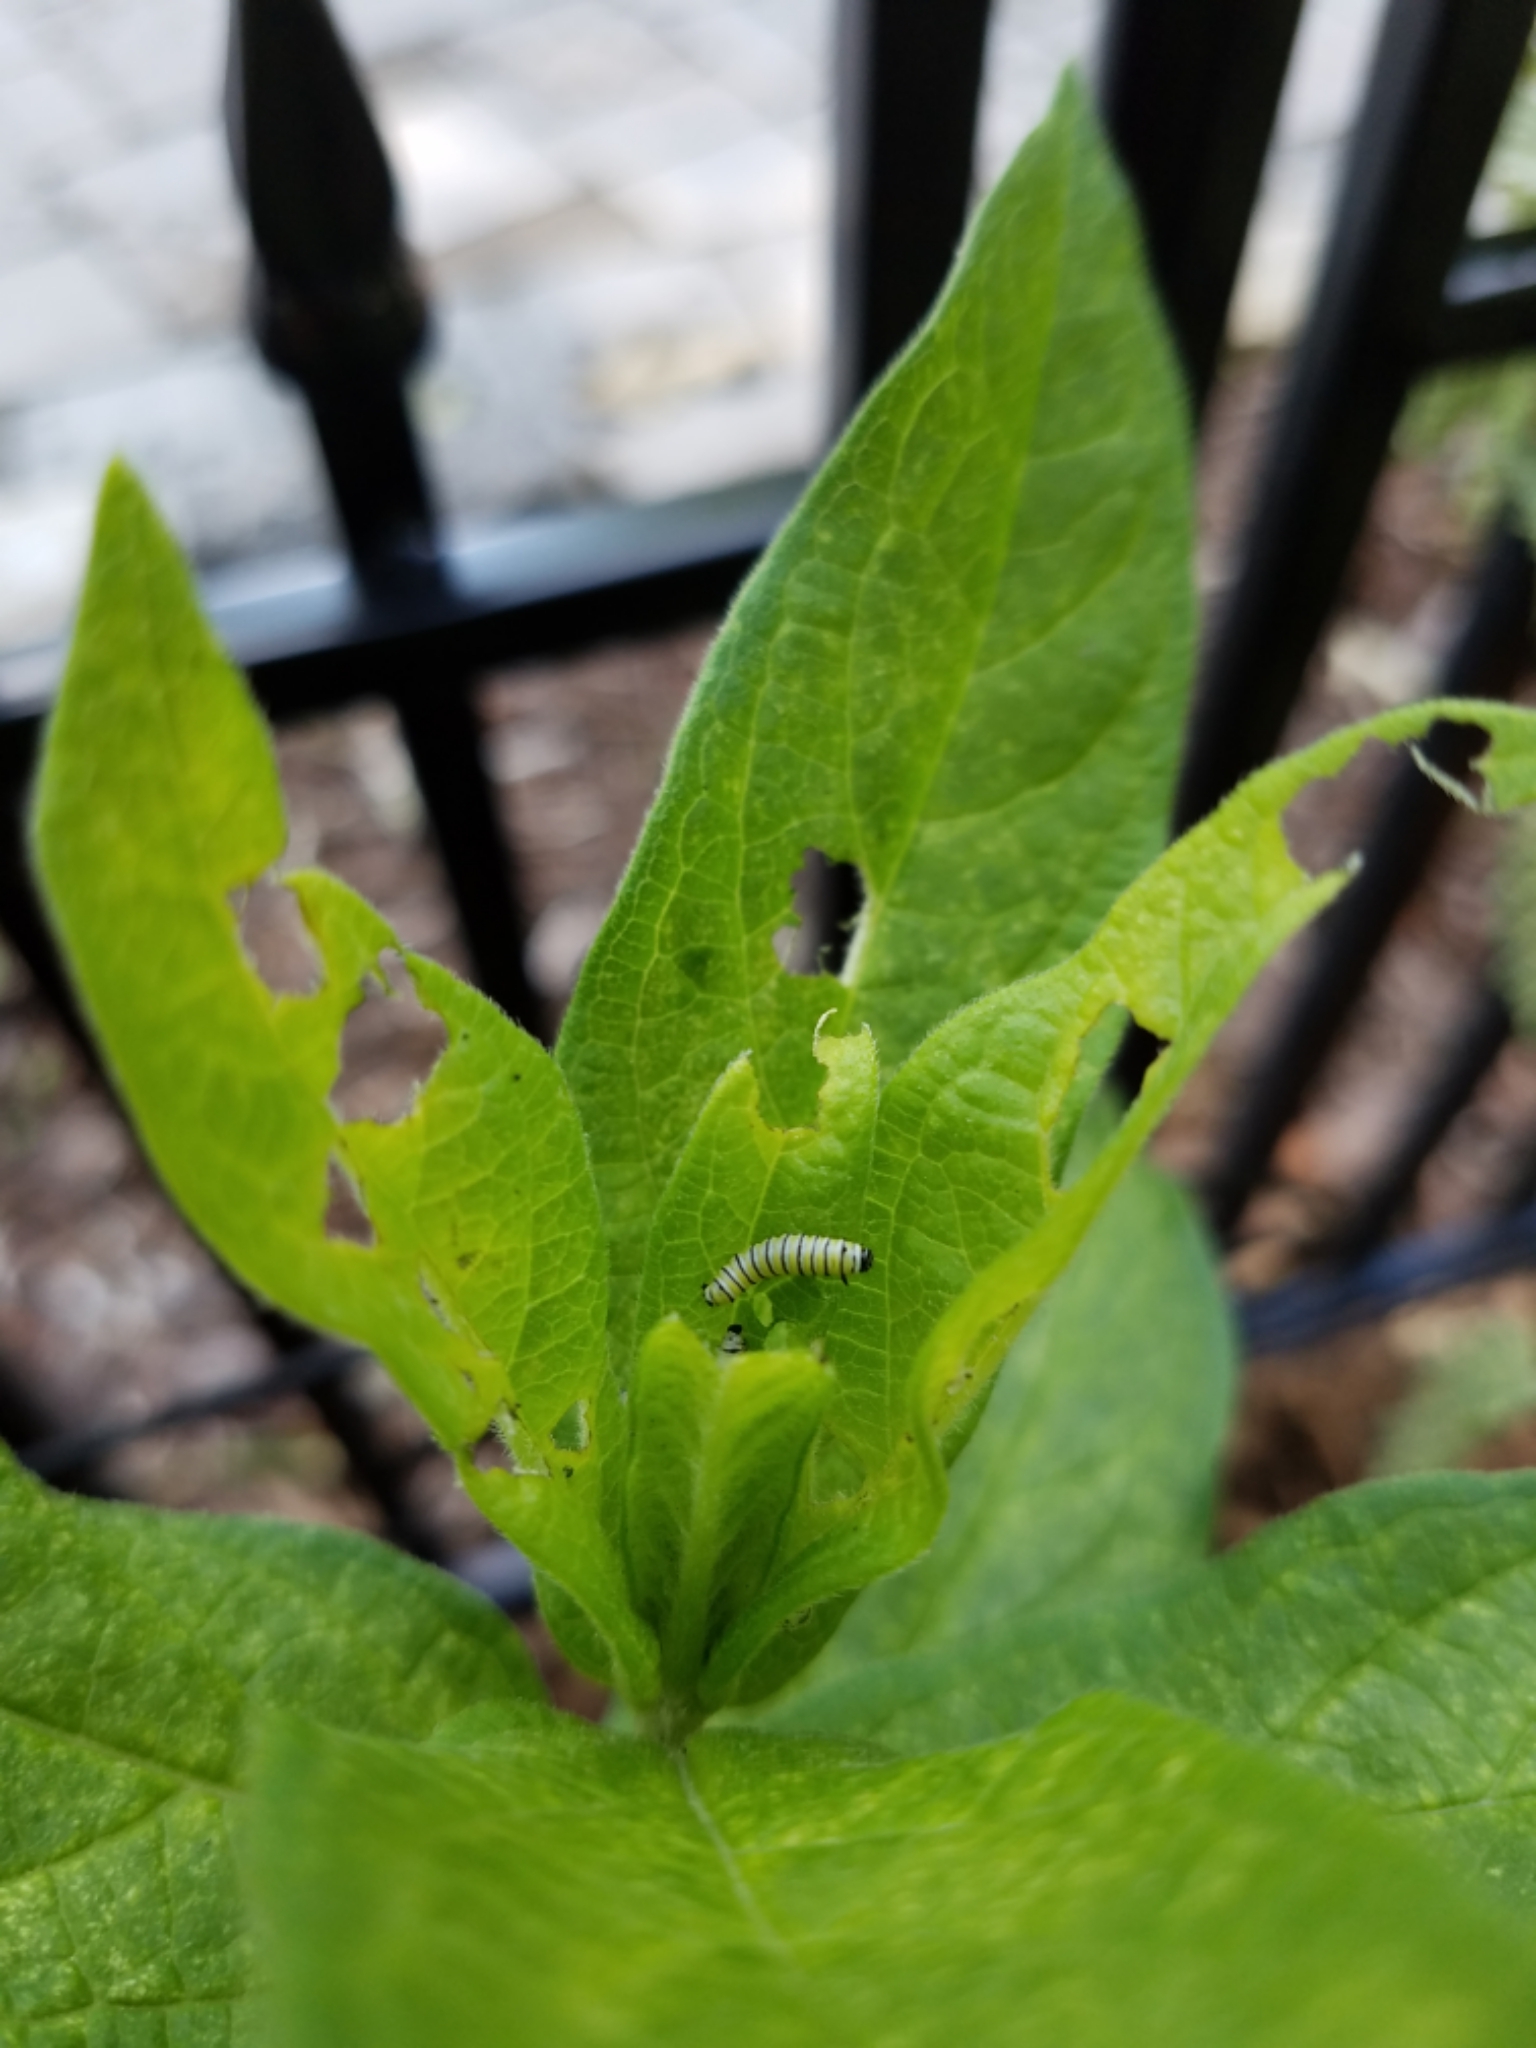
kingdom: Animalia
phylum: Arthropoda
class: Insecta
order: Lepidoptera
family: Nymphalidae
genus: Danaus
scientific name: Danaus plexippus
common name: Monarch
